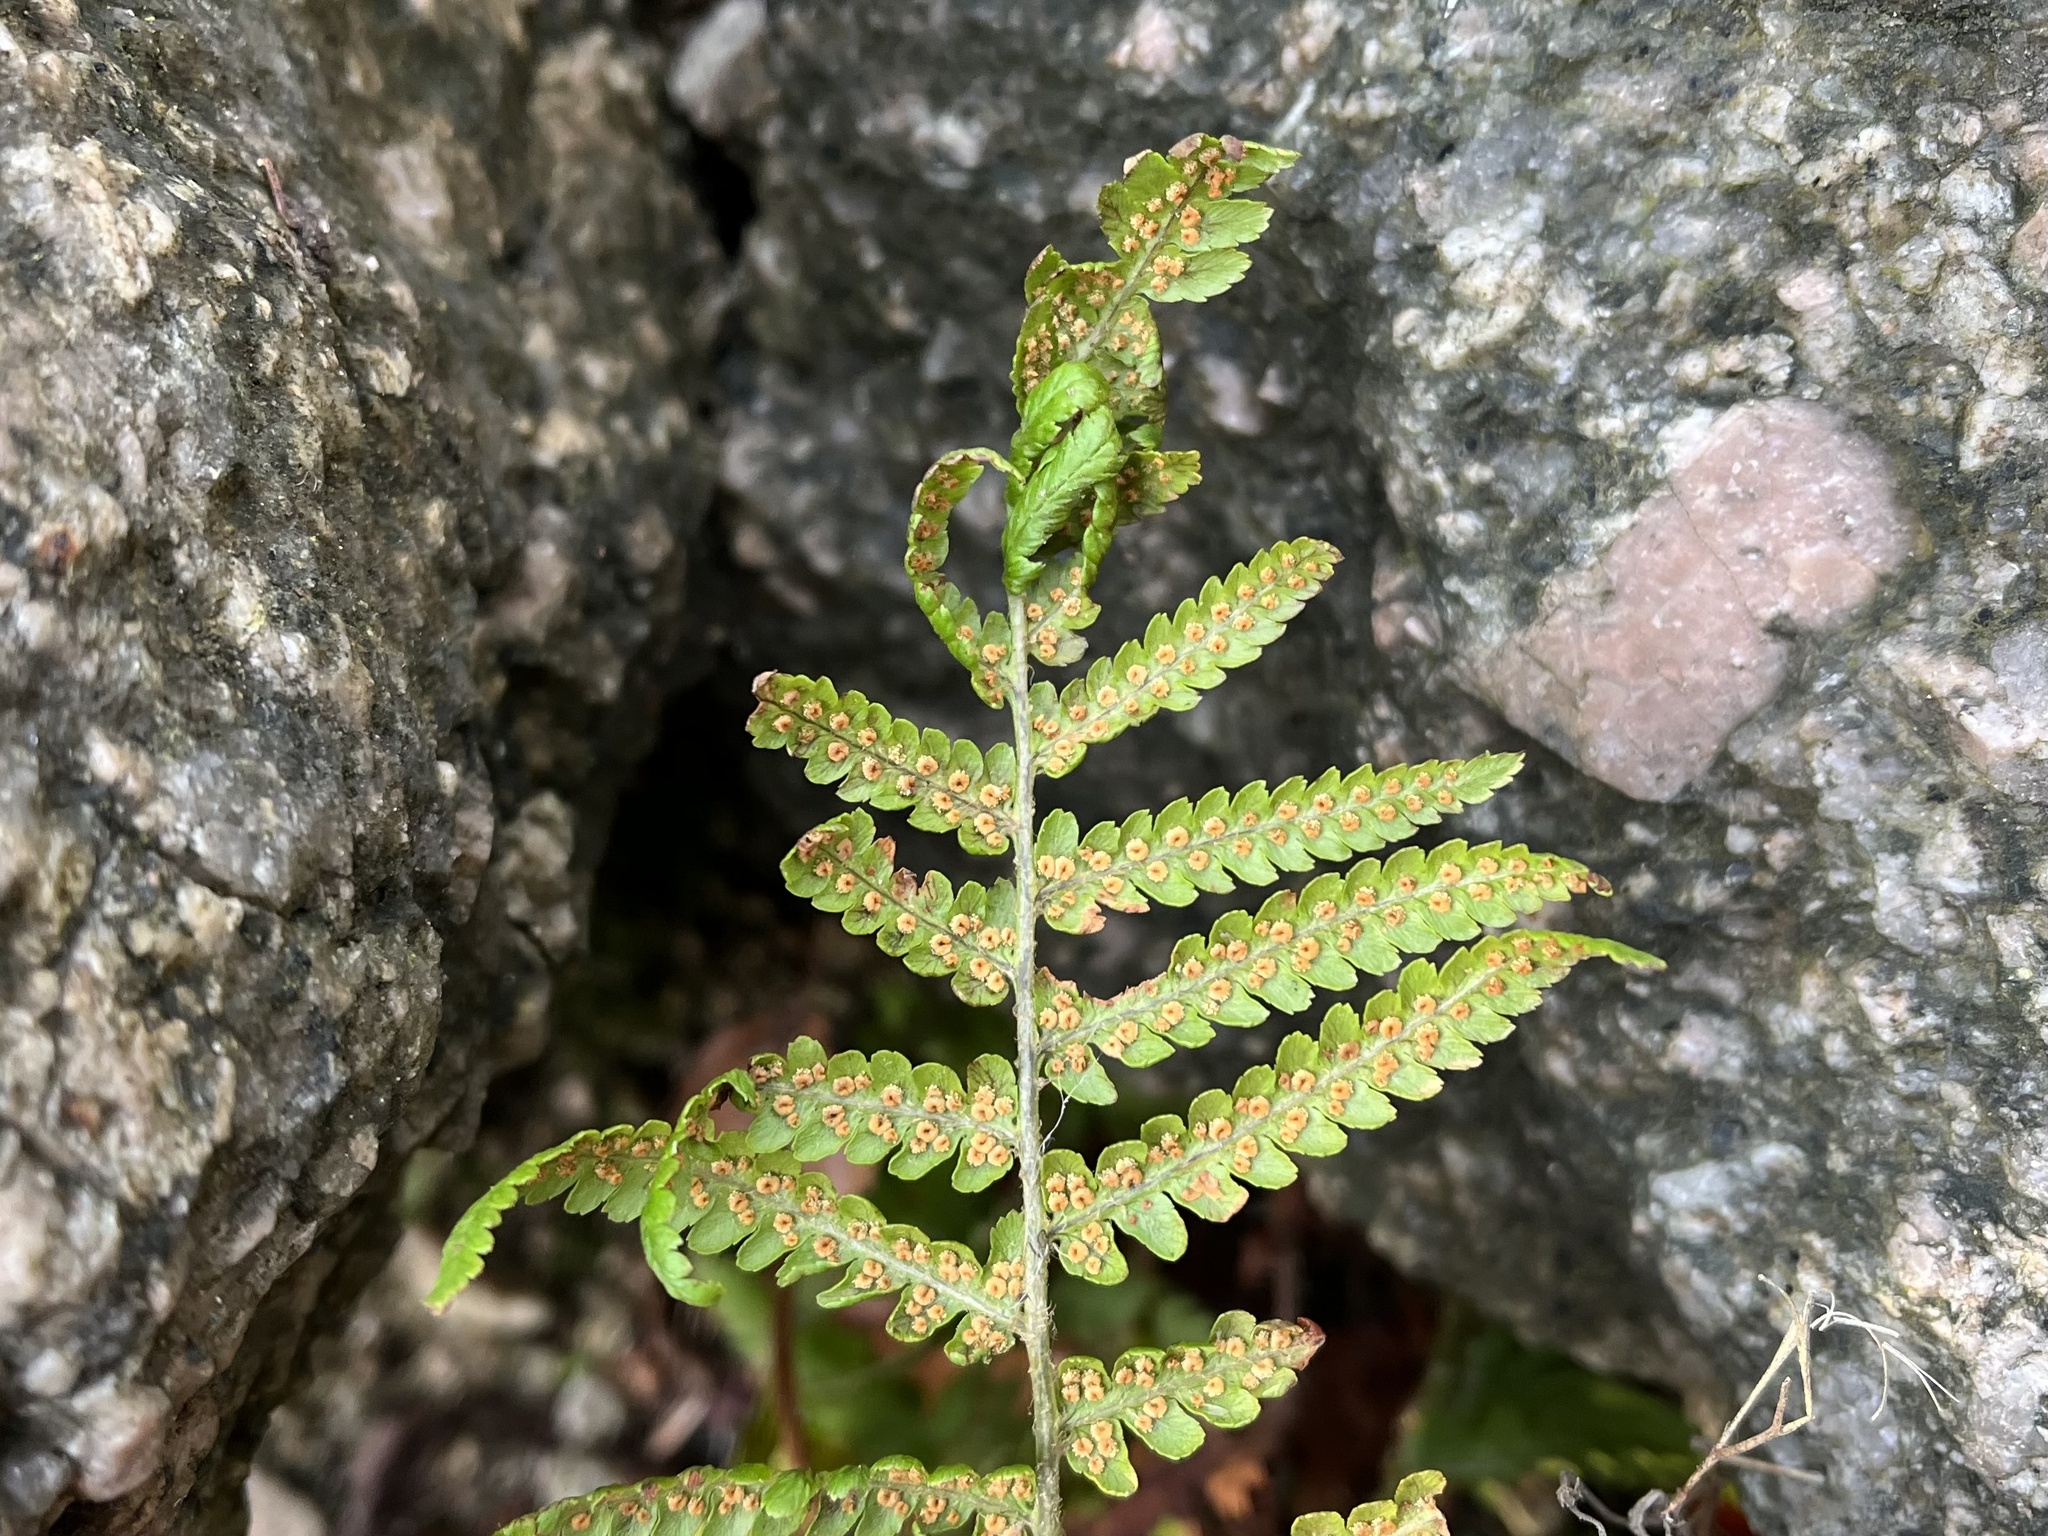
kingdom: Plantae
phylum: Tracheophyta
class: Polypodiopsida
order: Polypodiales
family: Dryopteridaceae
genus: Dryopteris
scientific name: Dryopteris filix-mas
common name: Male fern
